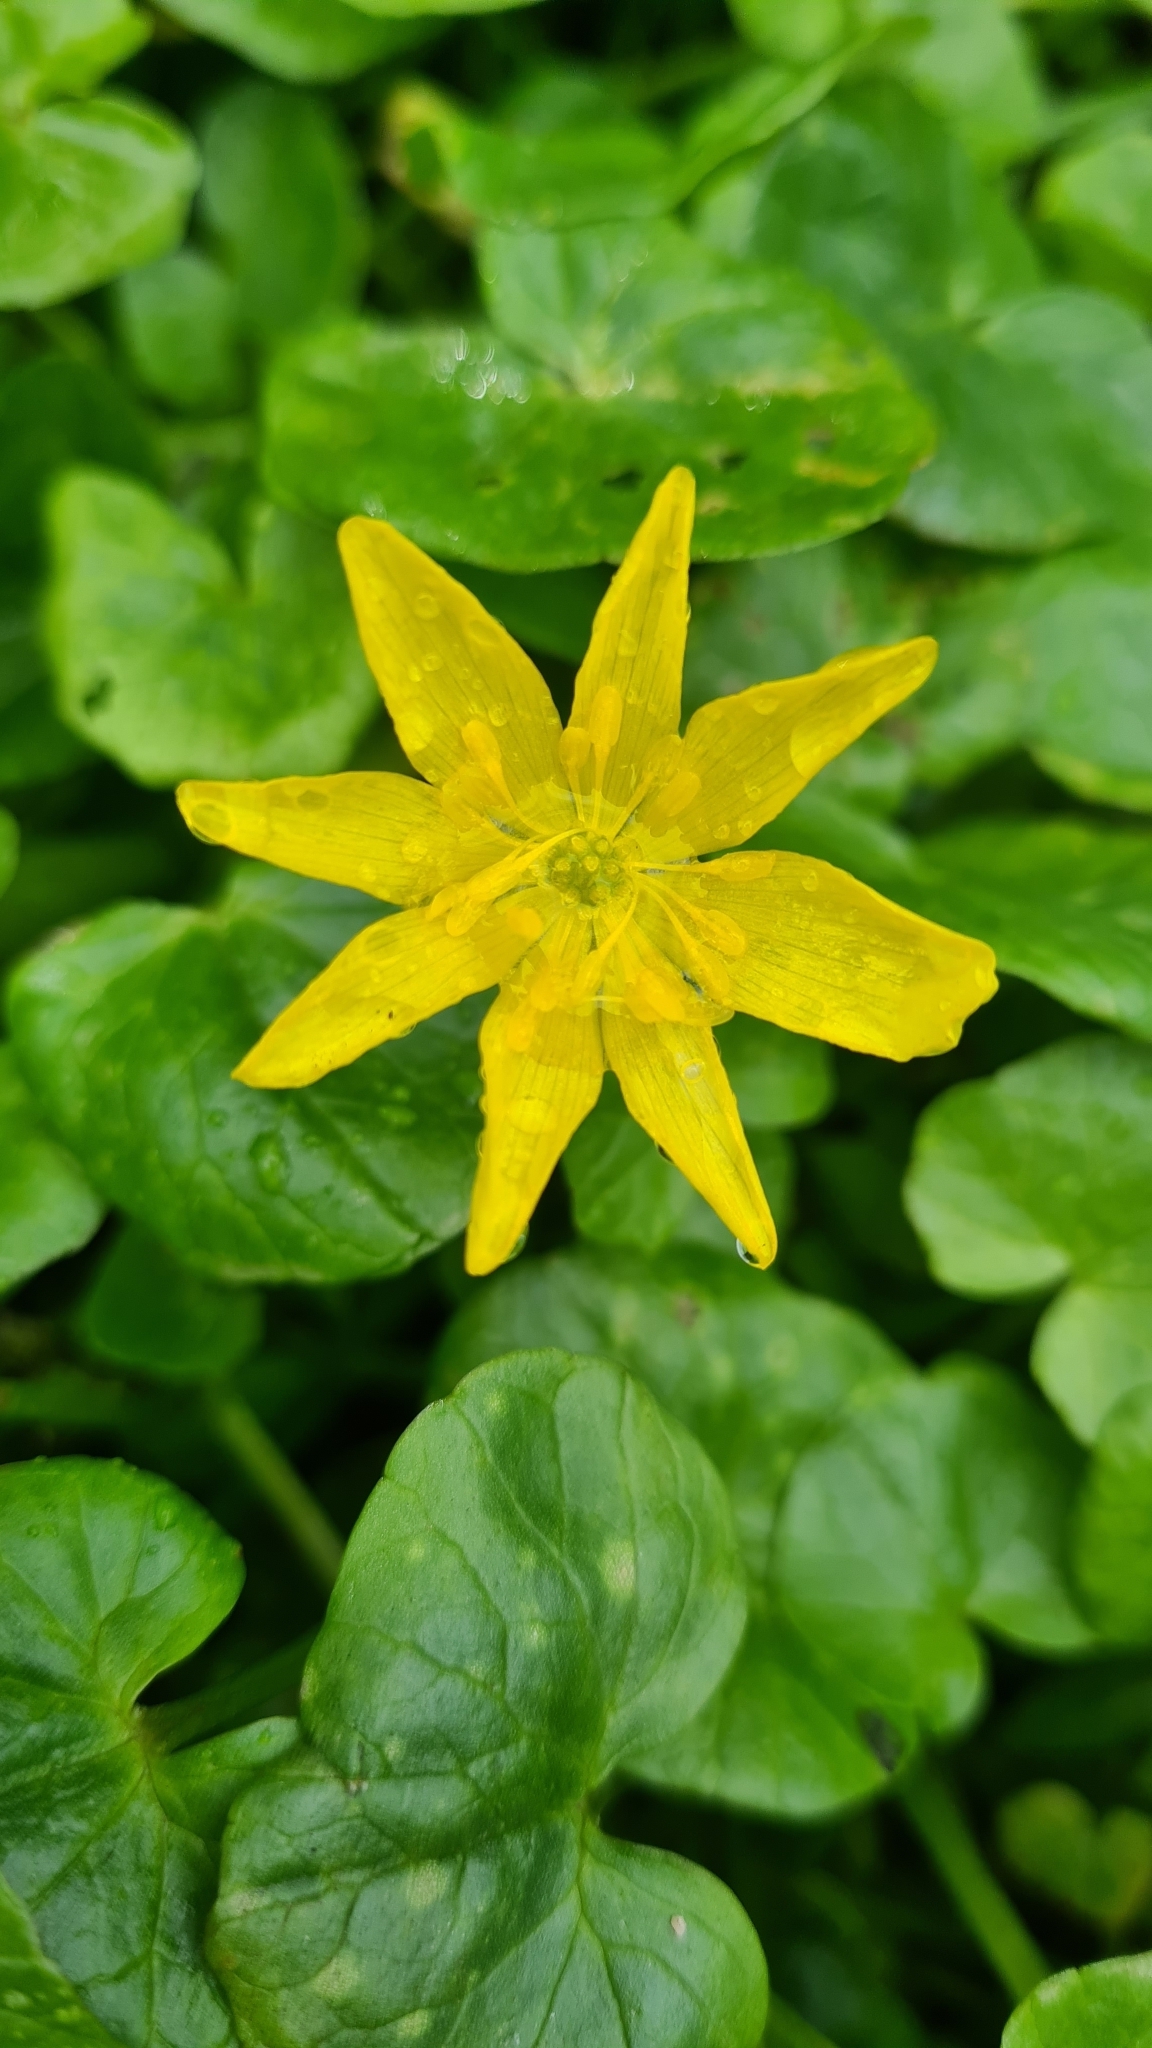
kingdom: Plantae
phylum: Tracheophyta
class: Magnoliopsida
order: Ranunculales
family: Ranunculaceae
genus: Ficaria
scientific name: Ficaria verna
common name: Lesser celandine
